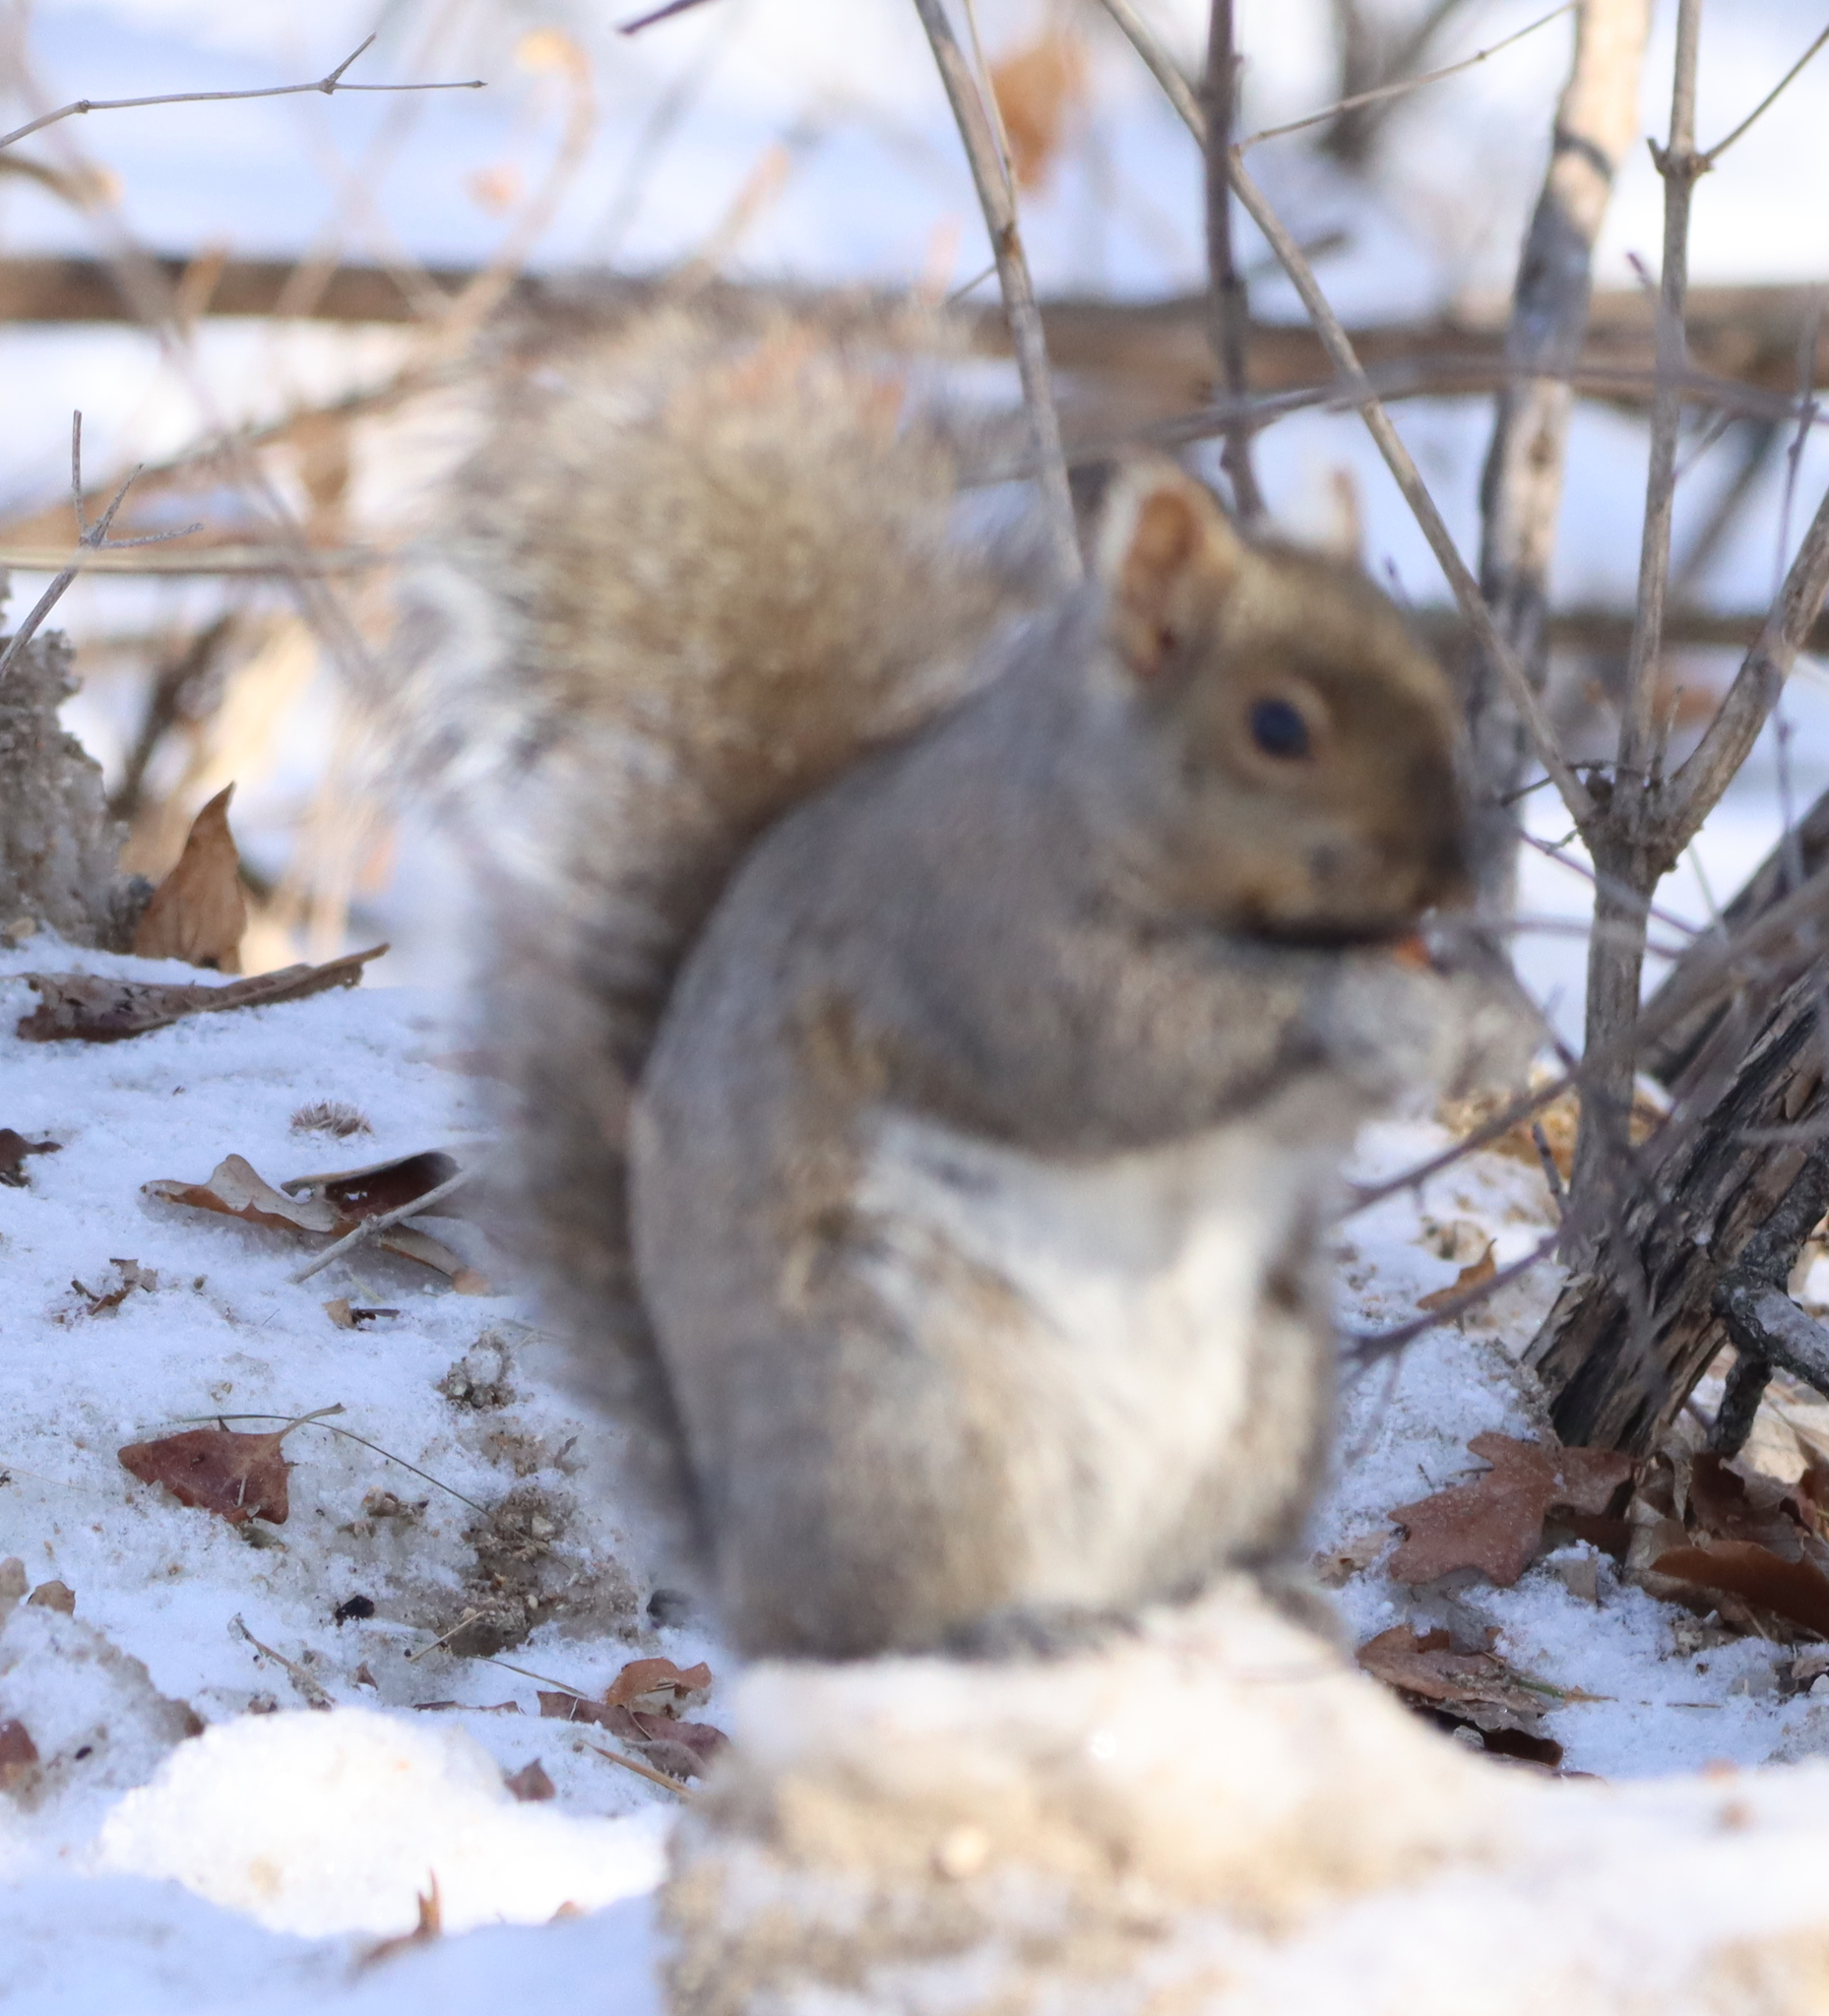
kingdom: Animalia
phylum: Chordata
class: Mammalia
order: Rodentia
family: Sciuridae
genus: Sciurus
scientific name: Sciurus carolinensis
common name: Eastern gray squirrel
